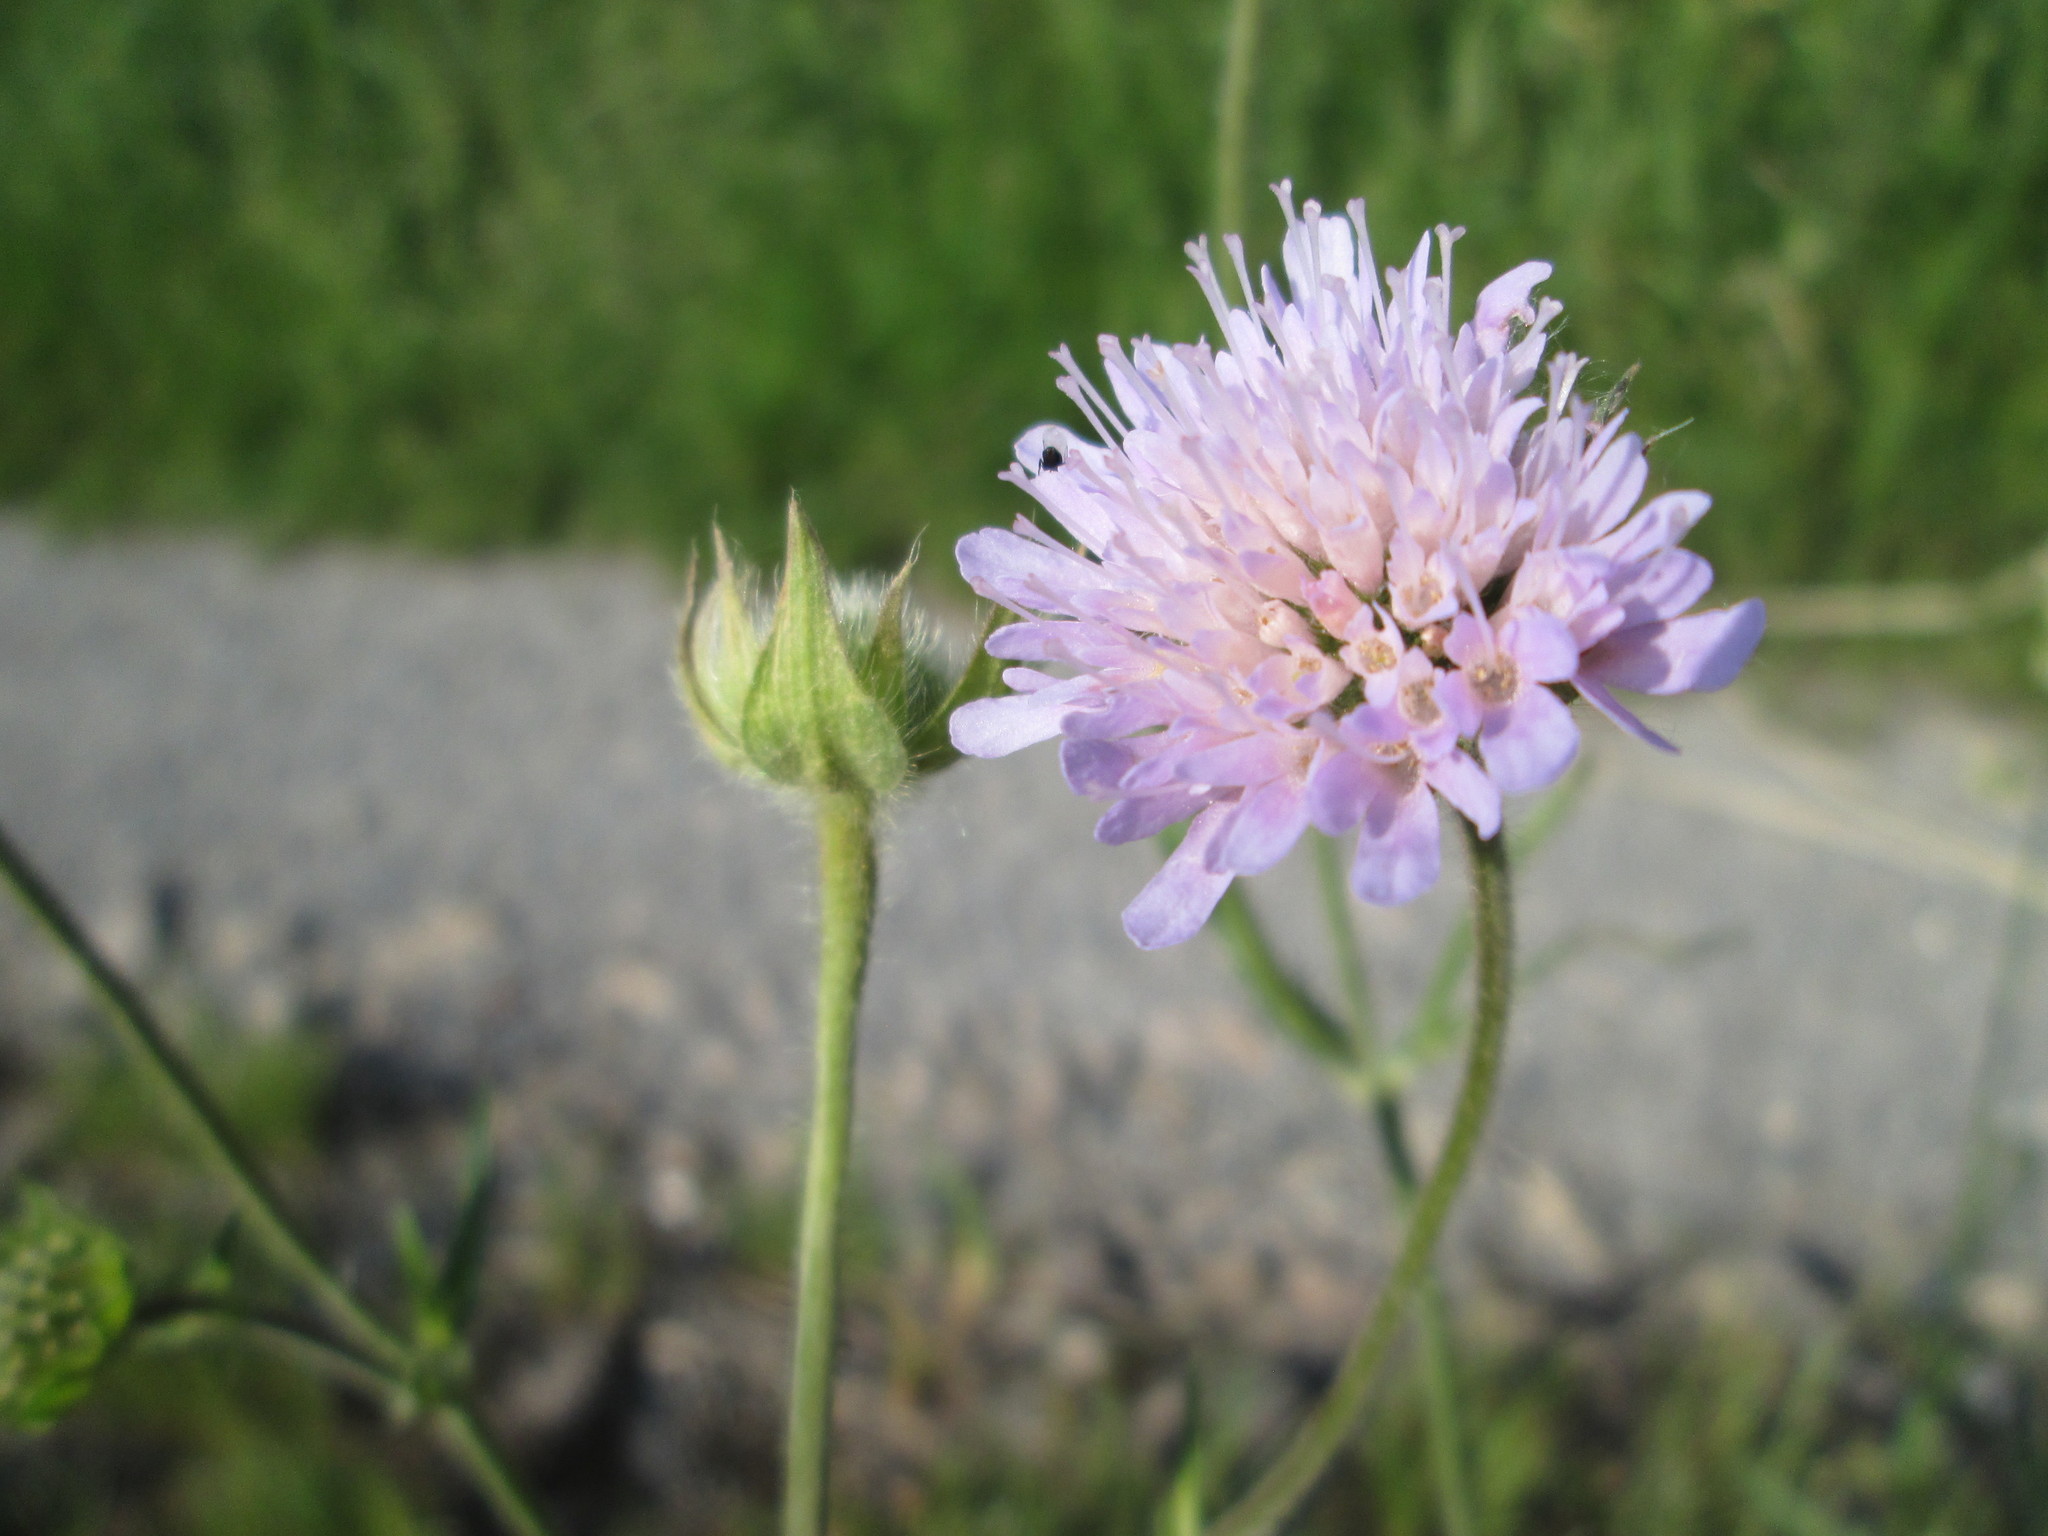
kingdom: Plantae
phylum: Tracheophyta
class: Magnoliopsida
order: Dipsacales
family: Caprifoliaceae
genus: Knautia
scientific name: Knautia arvensis
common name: Field scabiosa
